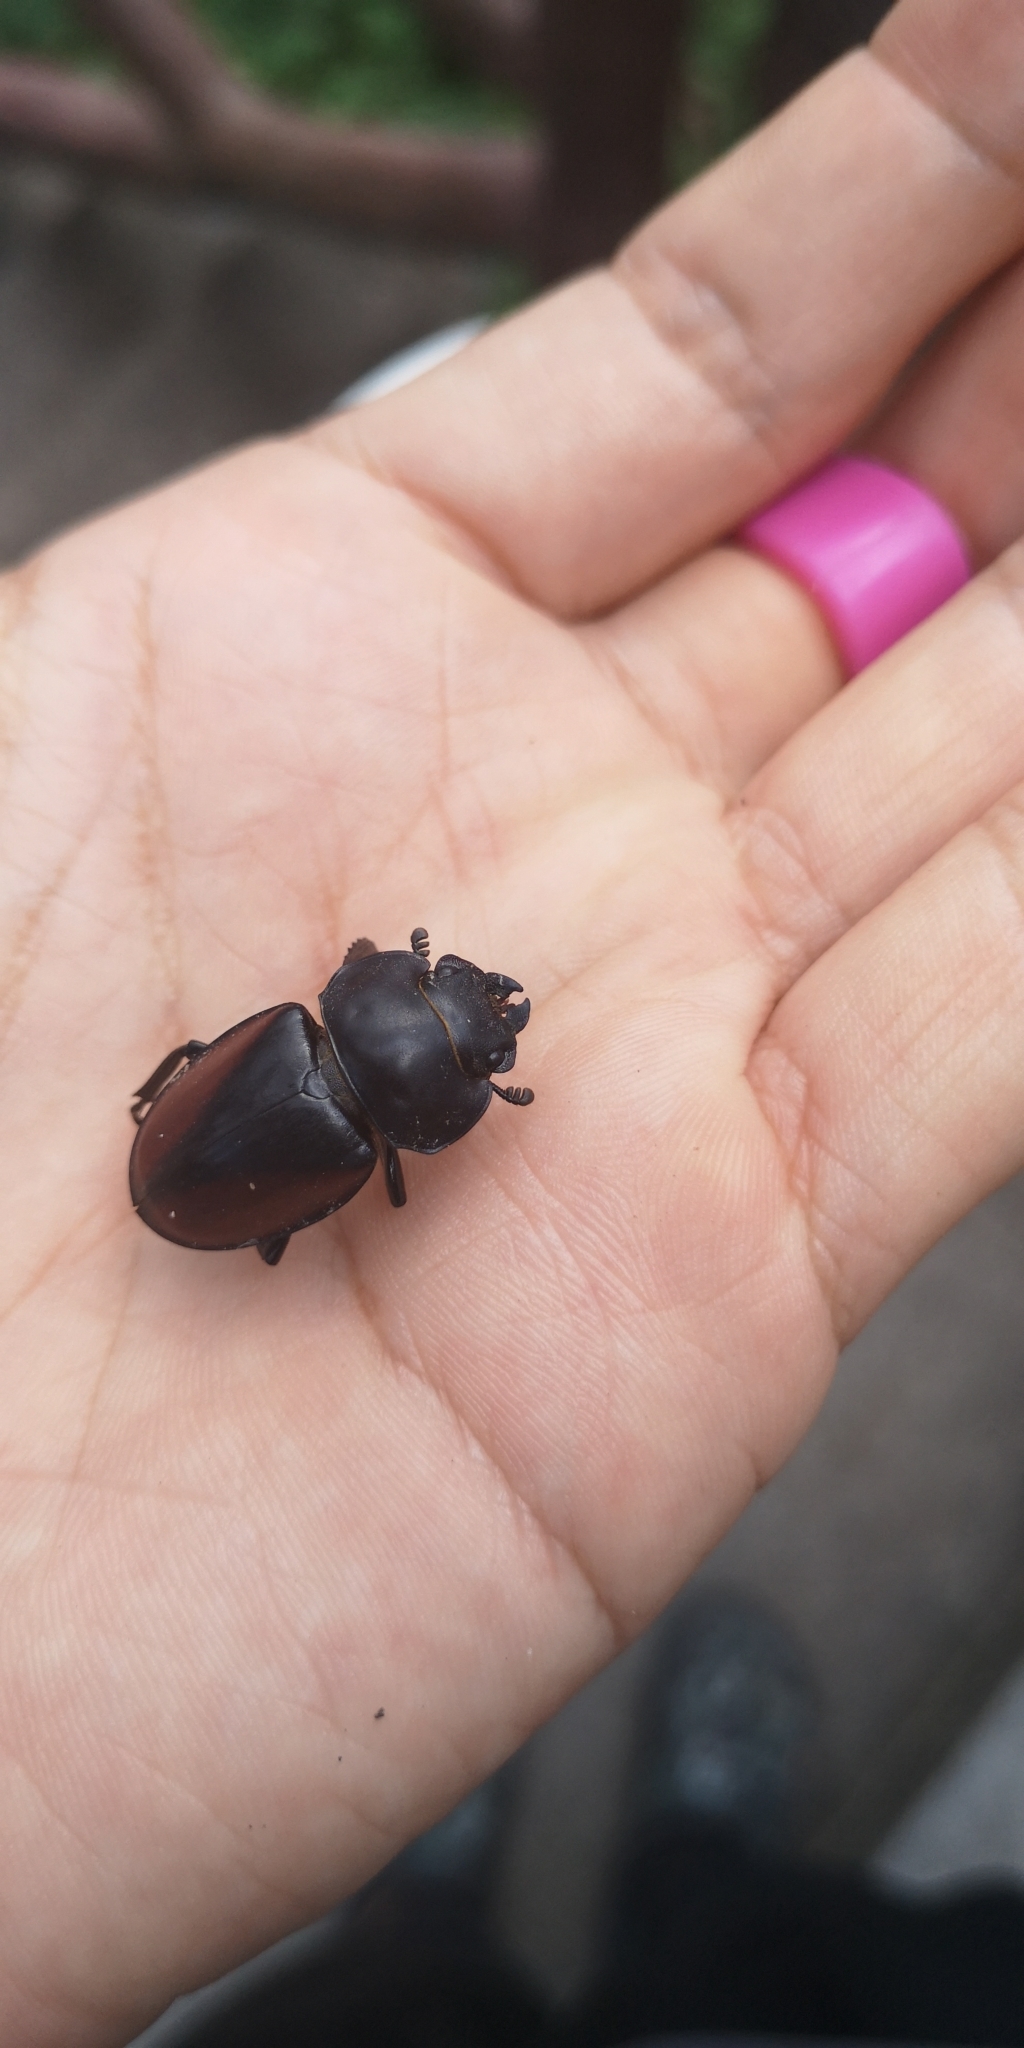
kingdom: Animalia
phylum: Arthropoda
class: Insecta
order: Coleoptera
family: Lucanidae
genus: Neolucanus
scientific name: Neolucanus parryi
